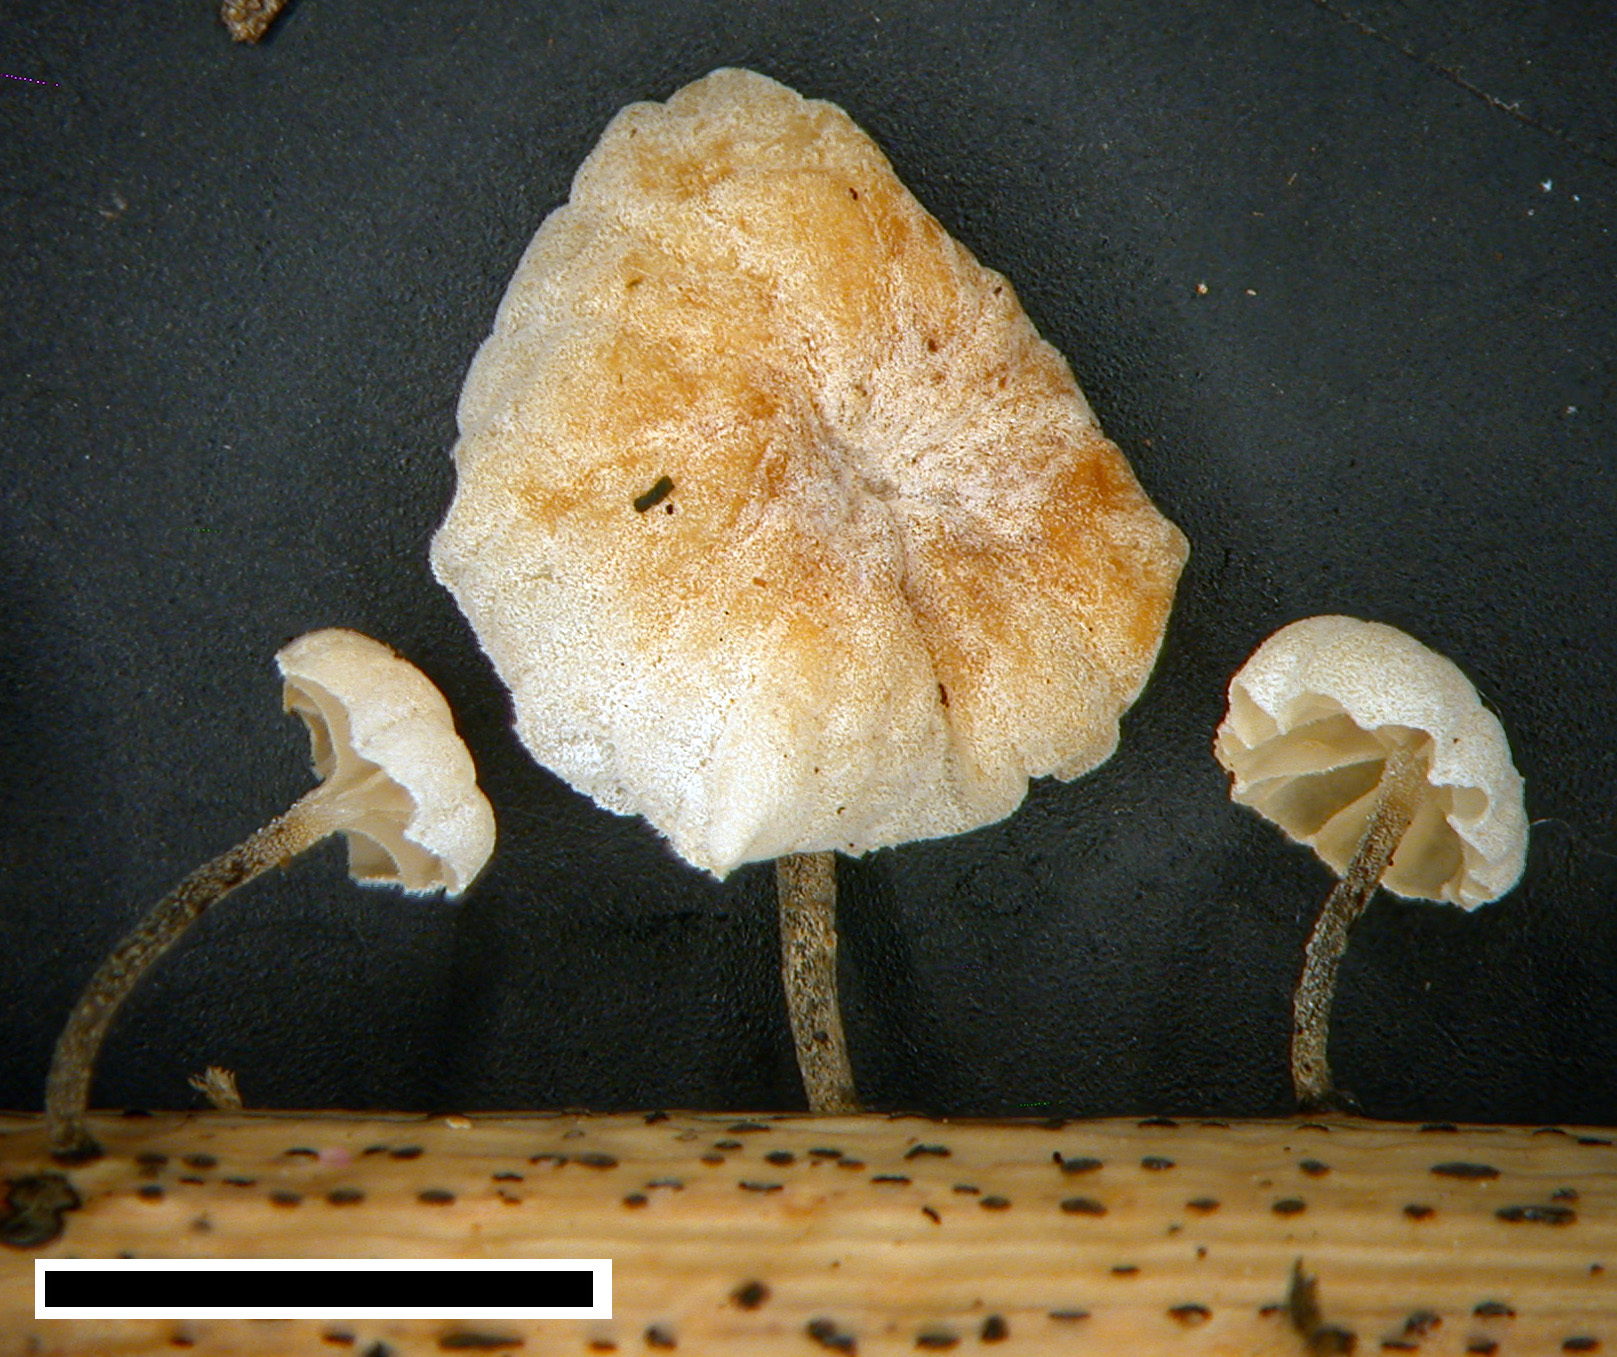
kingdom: Fungi
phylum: Basidiomycota
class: Agaricomycetes
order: Agaricales
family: Marasmiaceae
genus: Campanella
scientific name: Campanella
